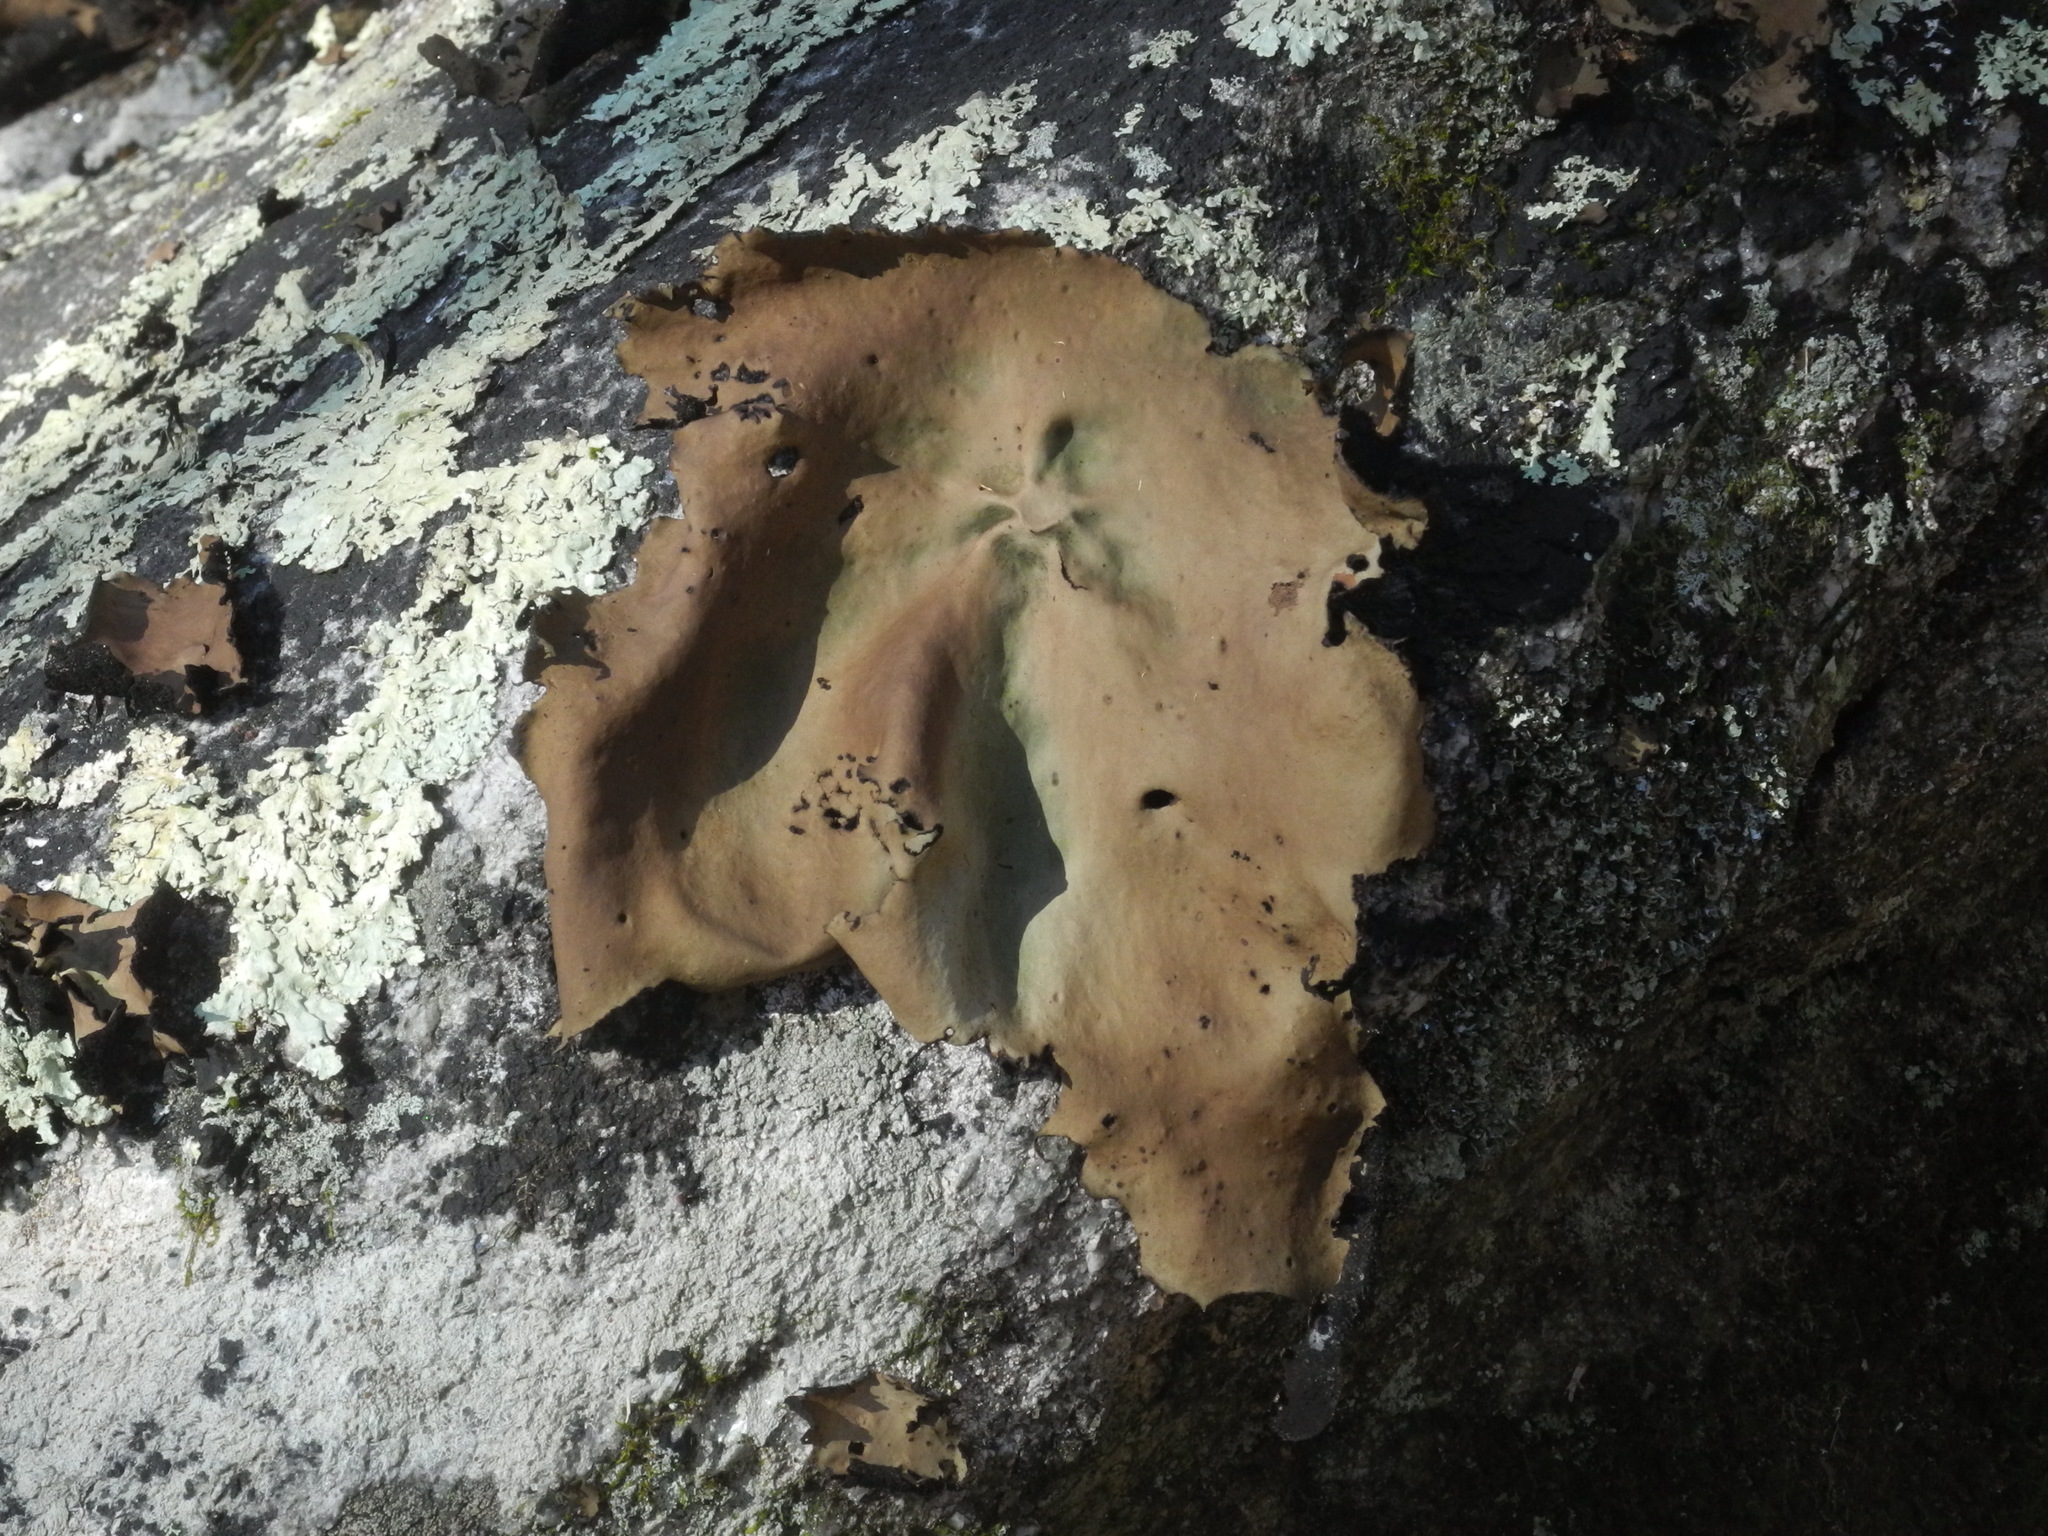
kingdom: Fungi
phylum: Ascomycota
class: Lecanoromycetes
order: Umbilicariales
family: Umbilicariaceae
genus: Umbilicaria
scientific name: Umbilicaria mammulata
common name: Smooth rock tripe
